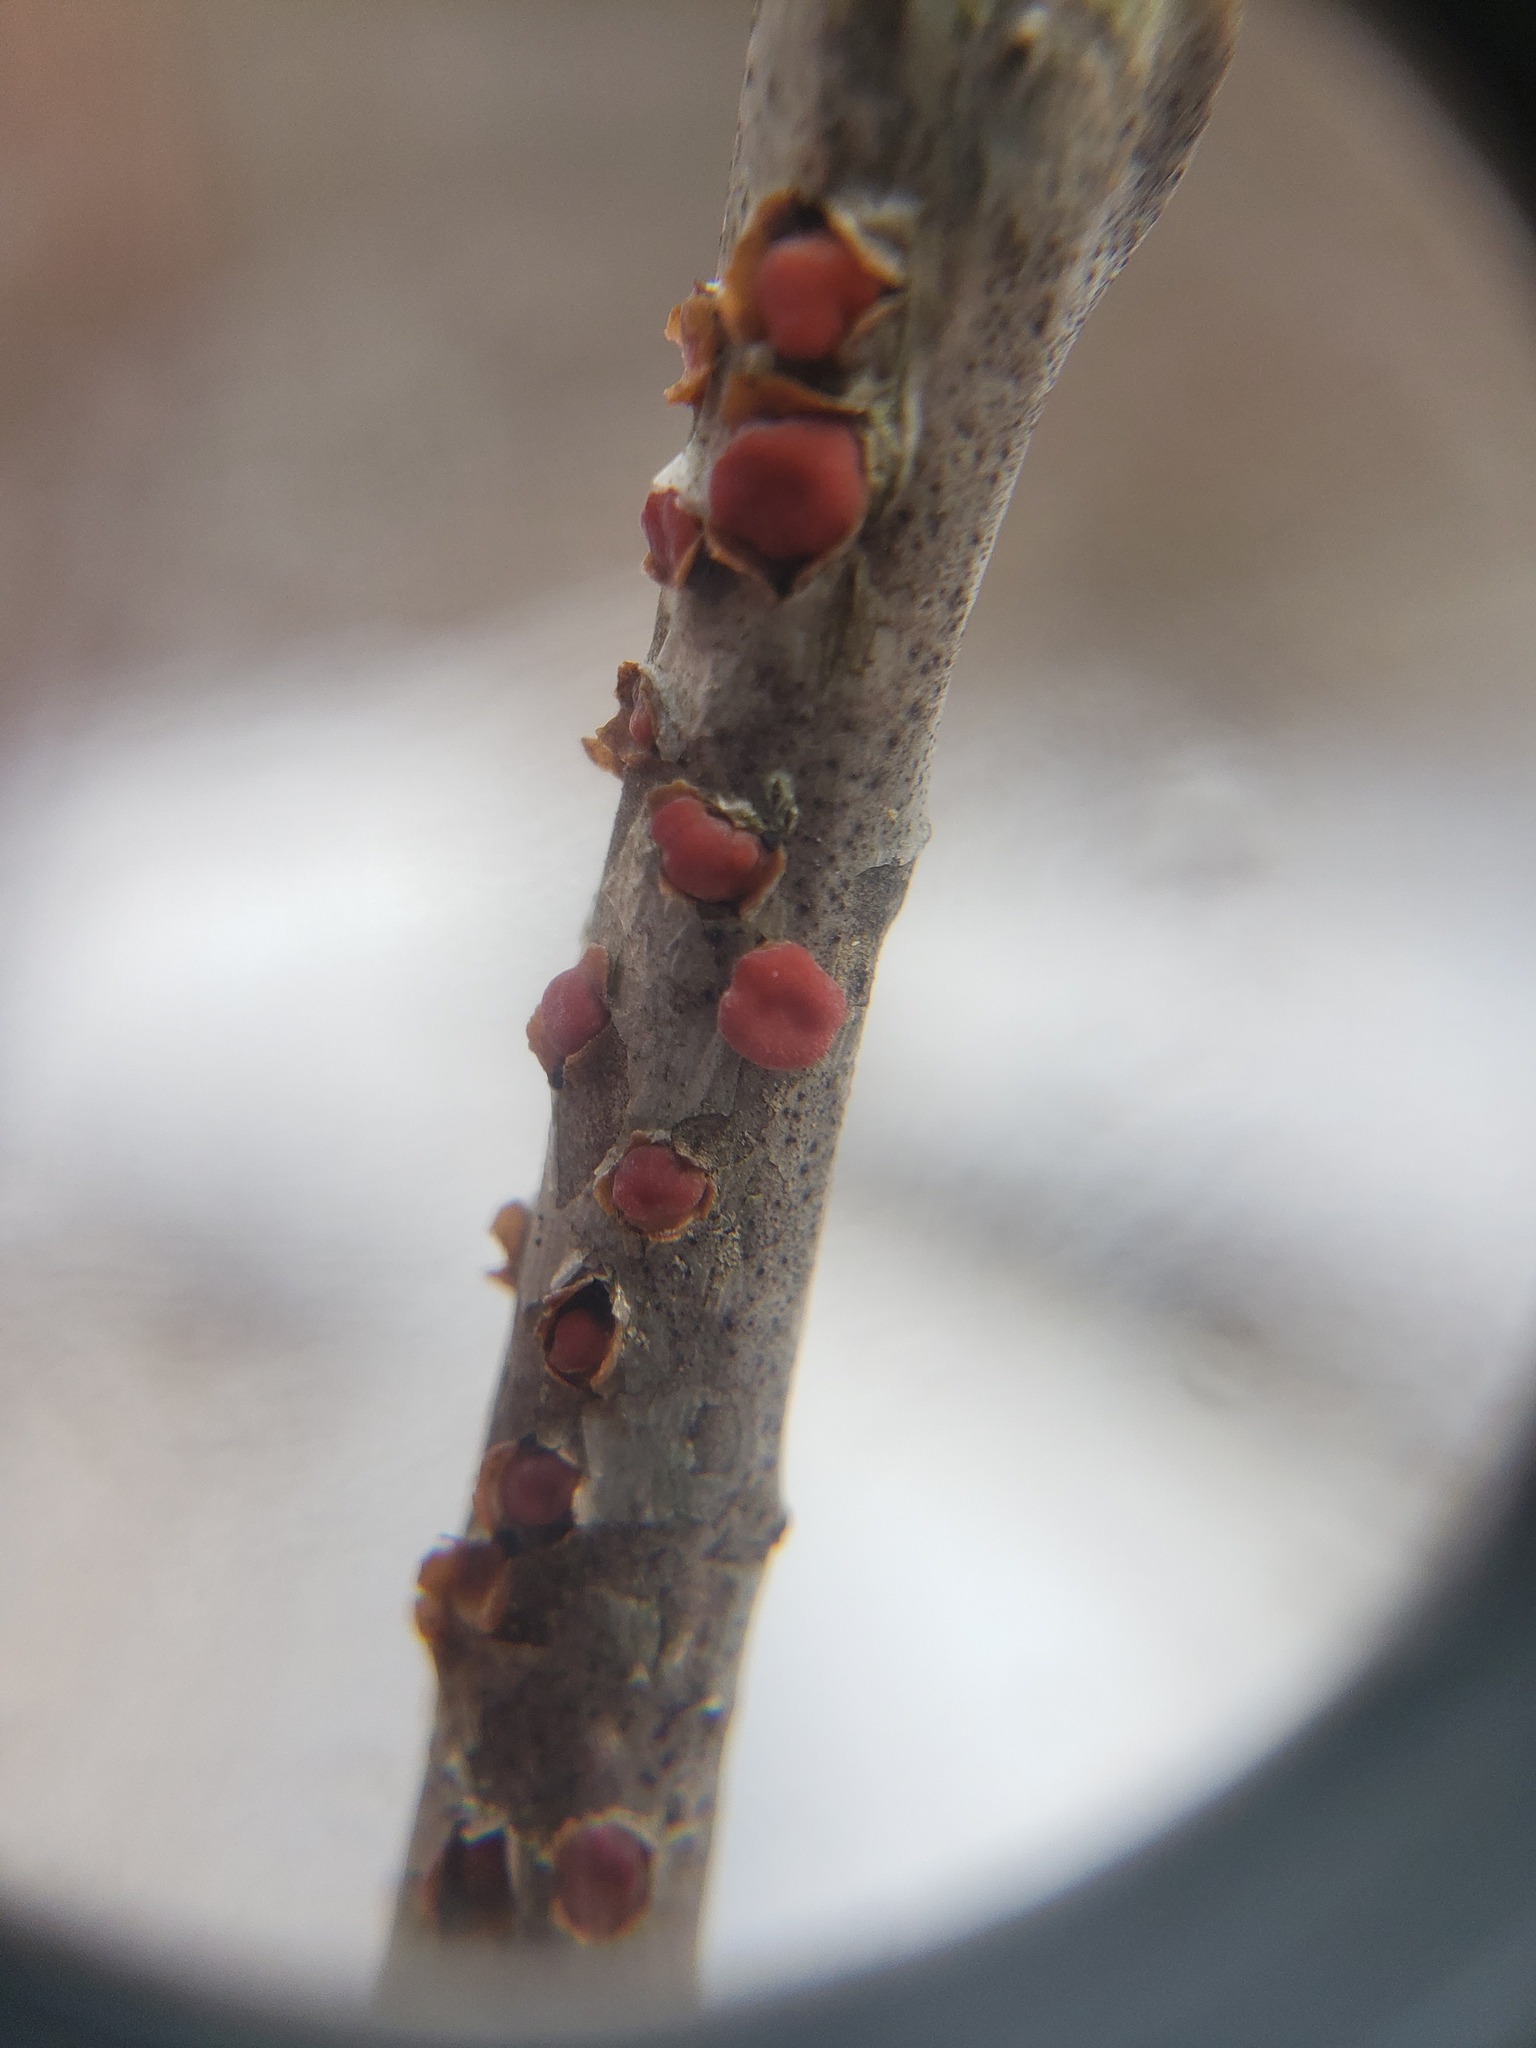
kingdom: Fungi
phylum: Basidiomycota
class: Agaricomycetes
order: Russulales
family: Peniophoraceae
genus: Peniophora
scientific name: Peniophora rufa
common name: Red tree brain fungus
